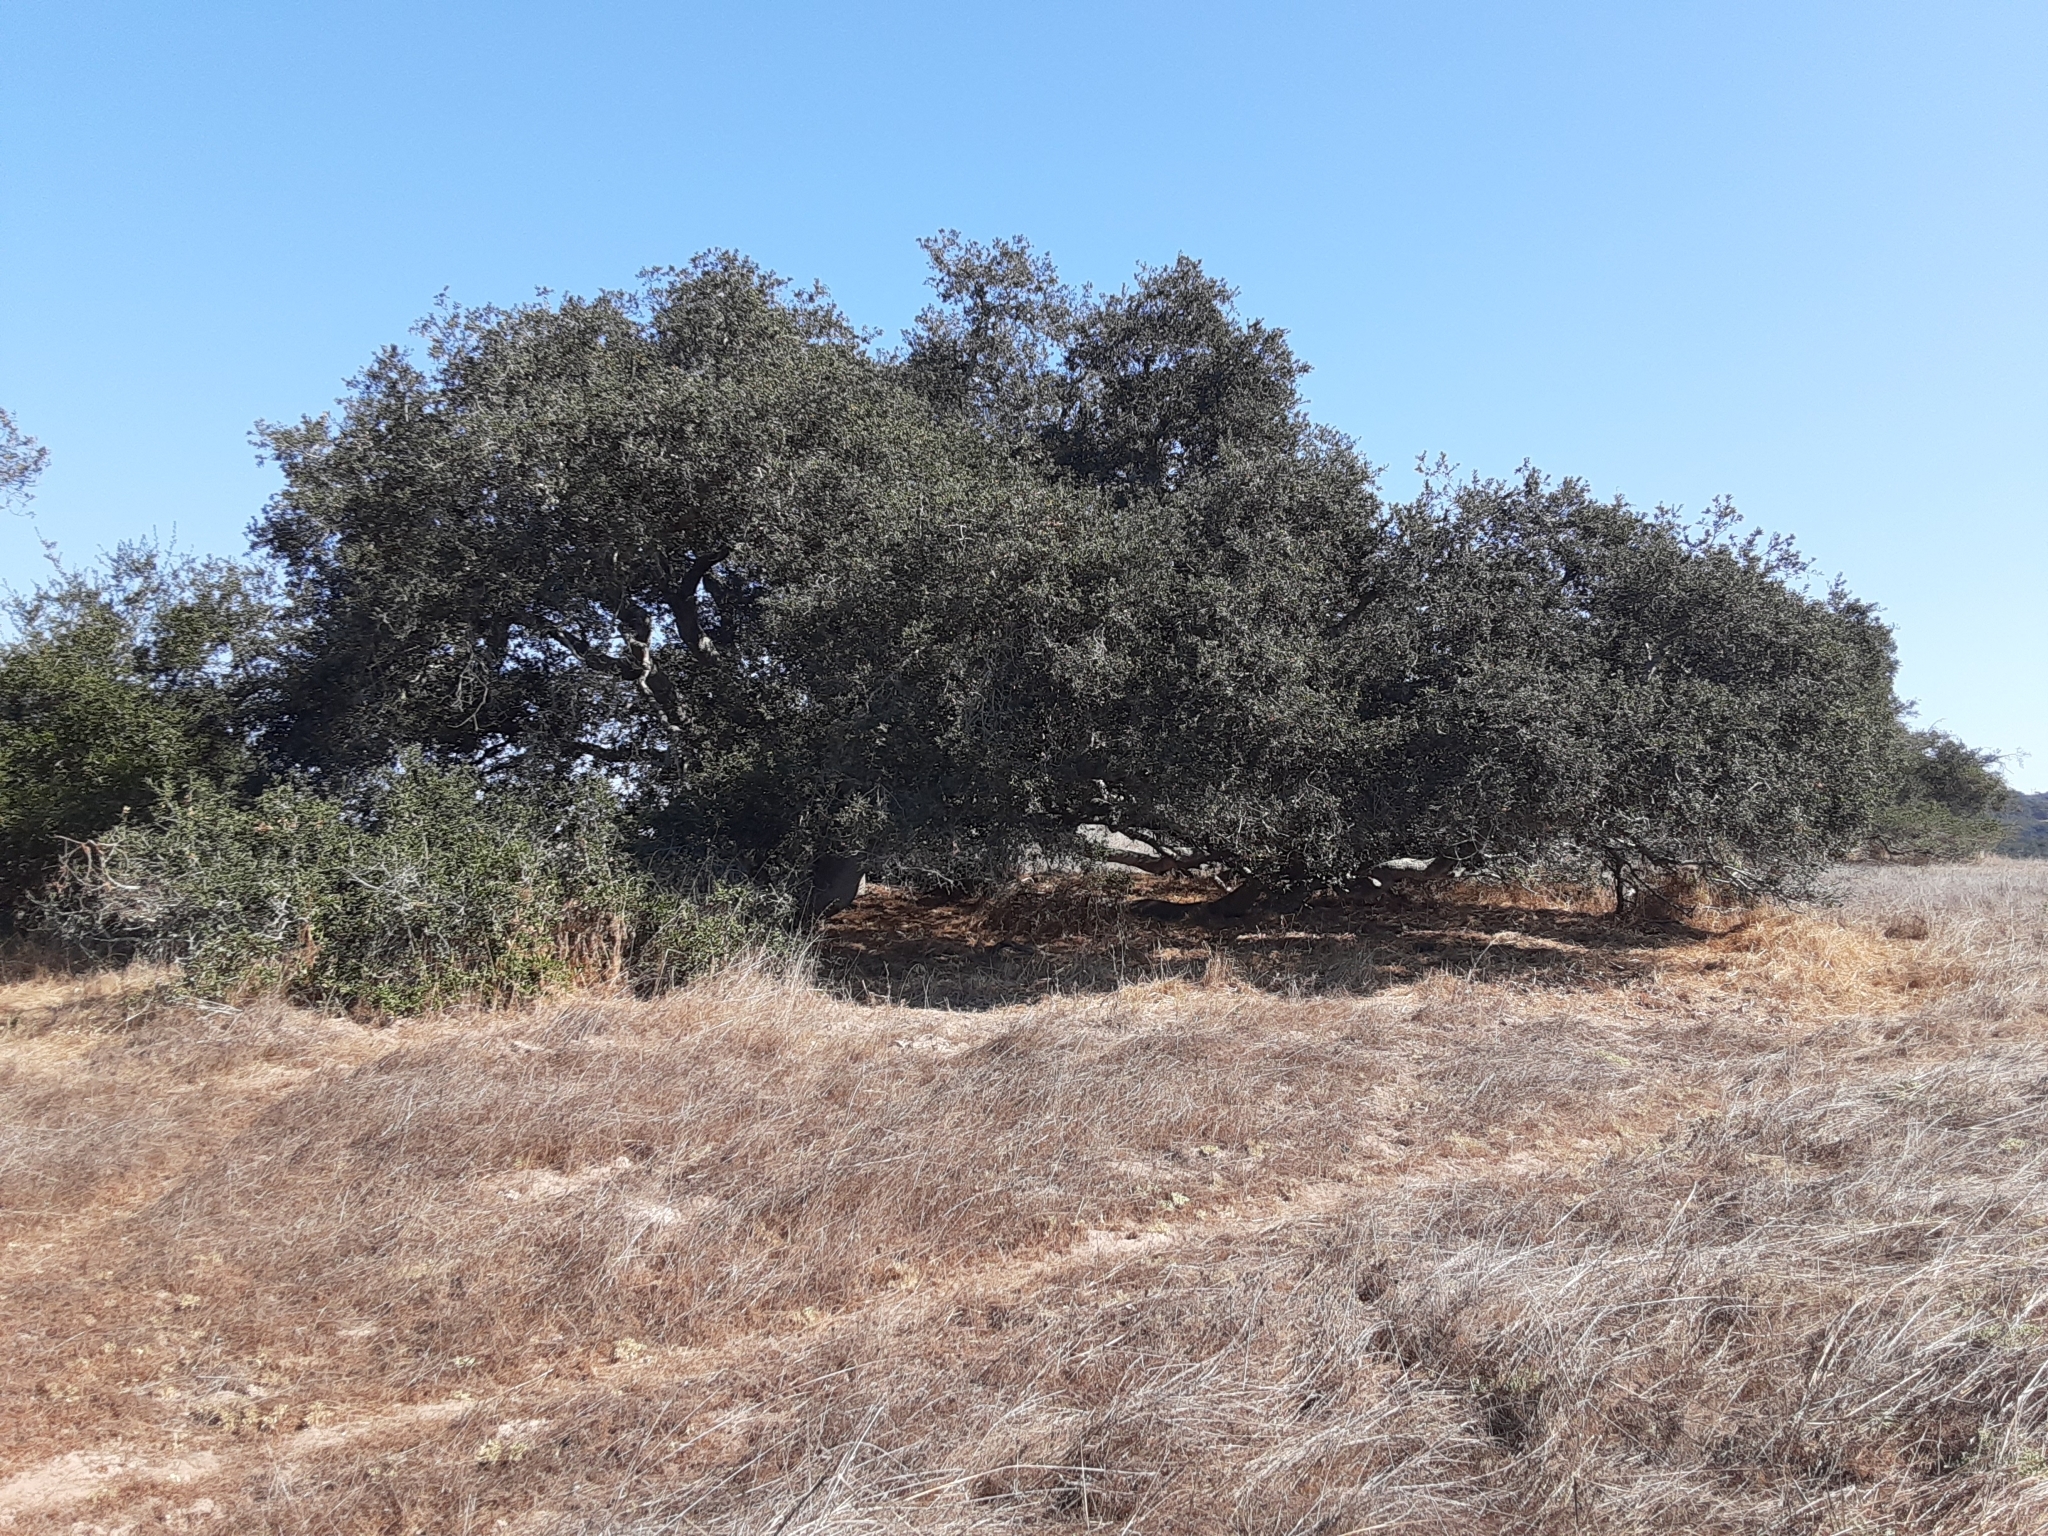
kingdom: Plantae
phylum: Tracheophyta
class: Magnoliopsida
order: Fagales
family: Fagaceae
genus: Quercus
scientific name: Quercus agrifolia
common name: California live oak
